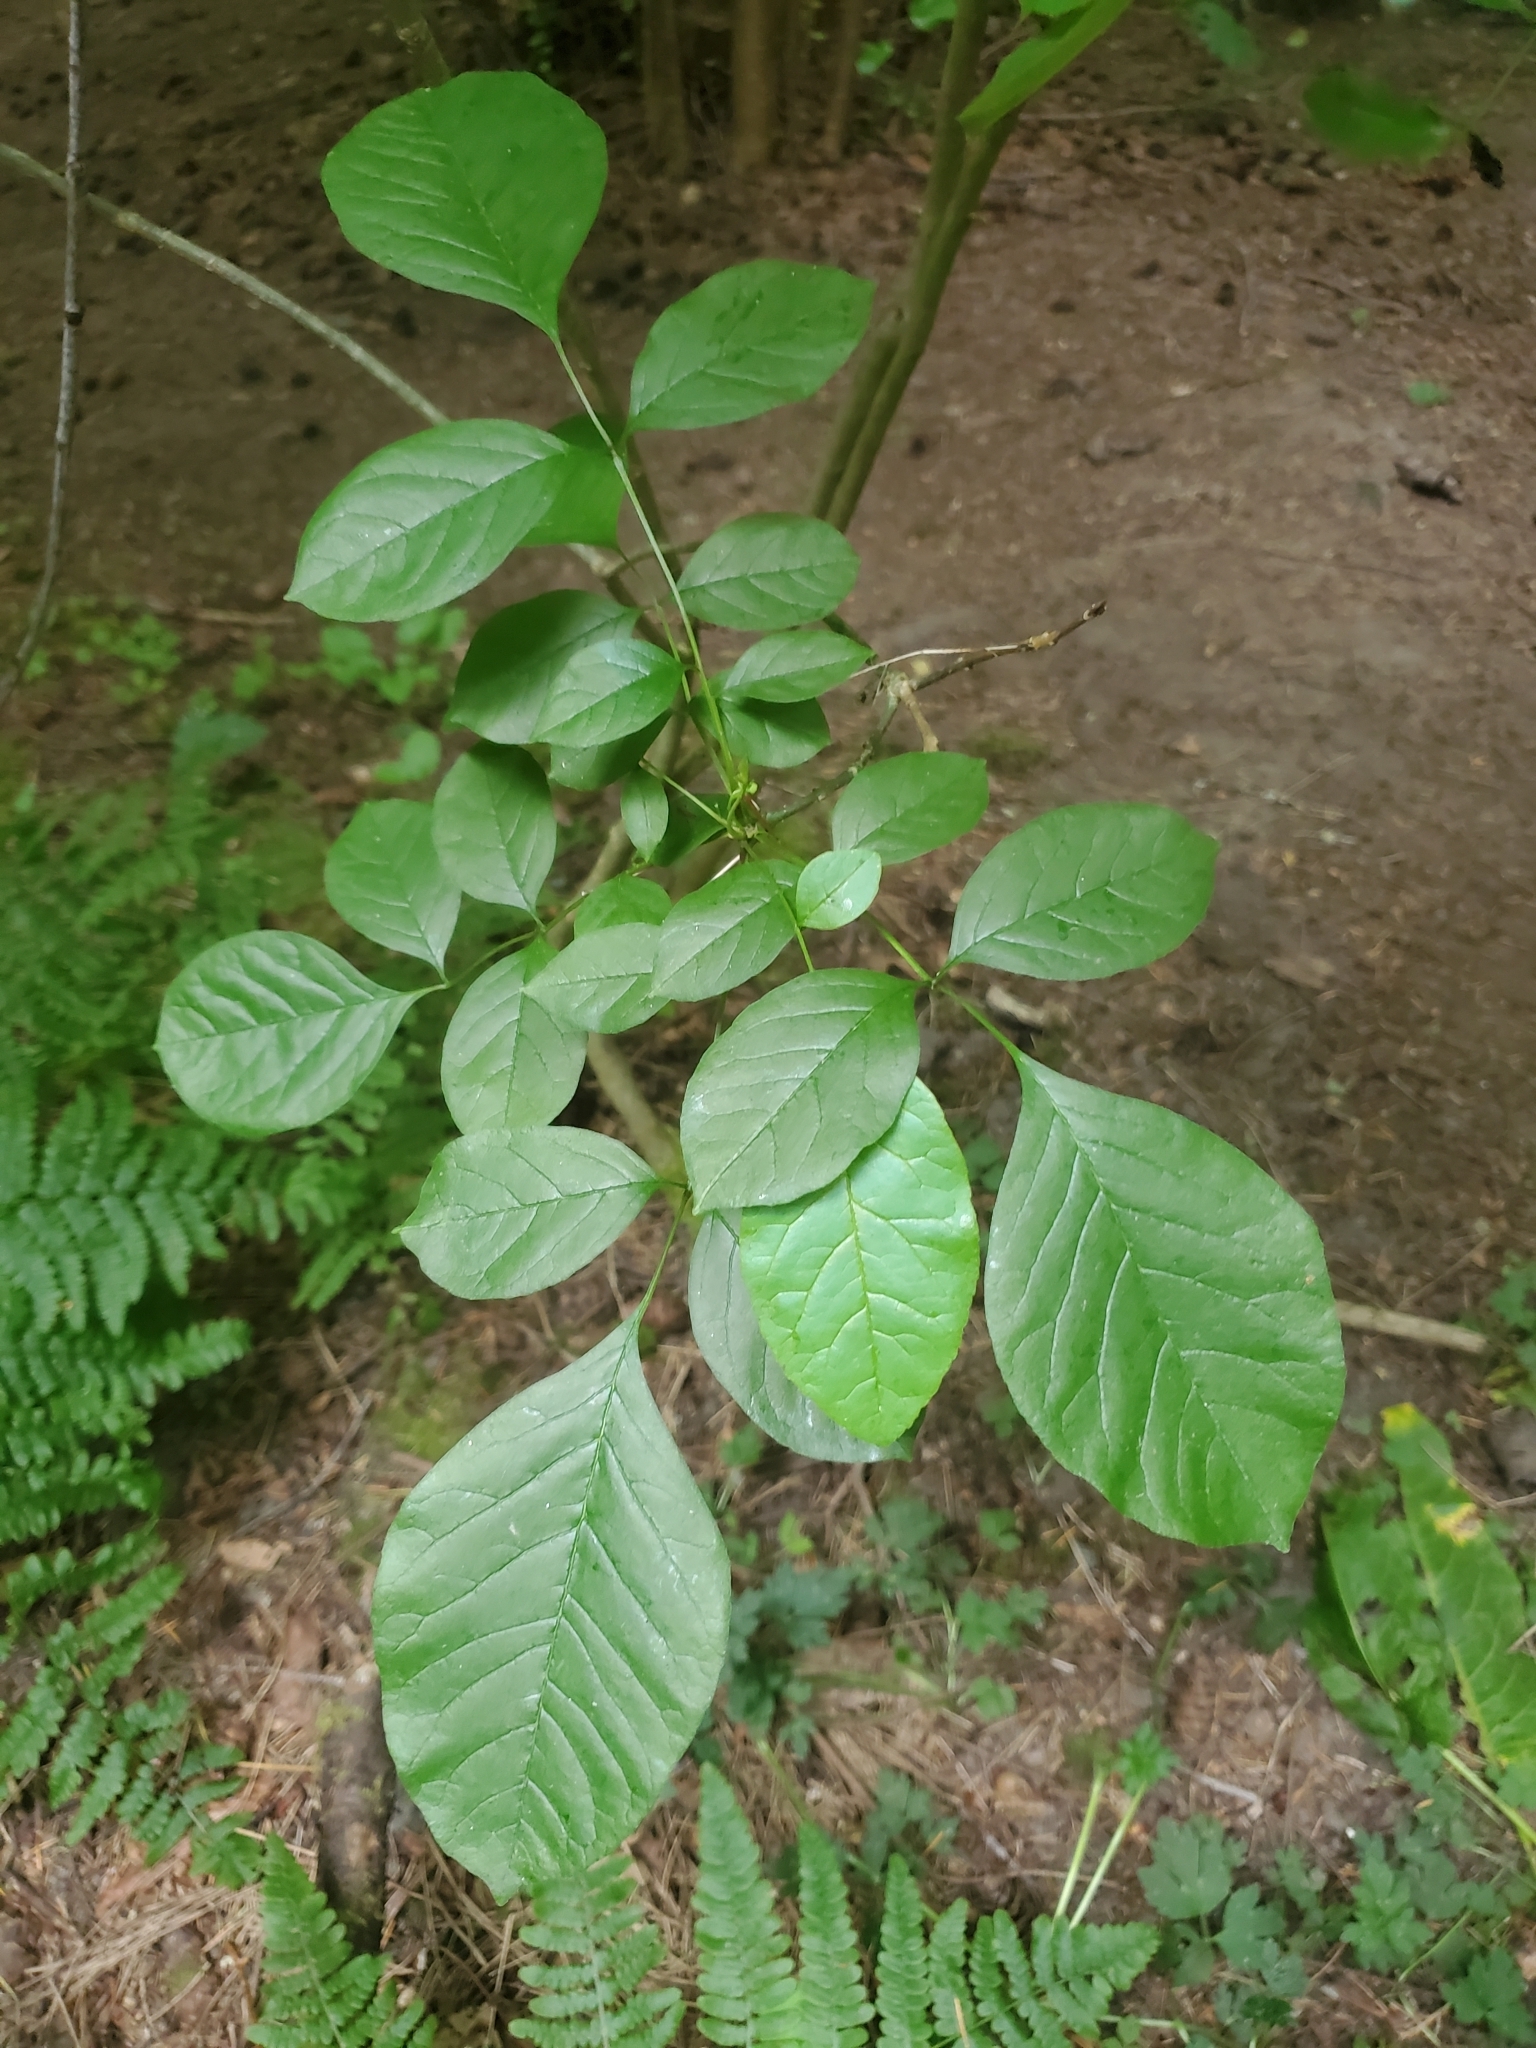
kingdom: Plantae
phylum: Tracheophyta
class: Magnoliopsida
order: Lamiales
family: Oleaceae
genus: Fraxinus
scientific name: Fraxinus latifolia
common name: Oregon ash
